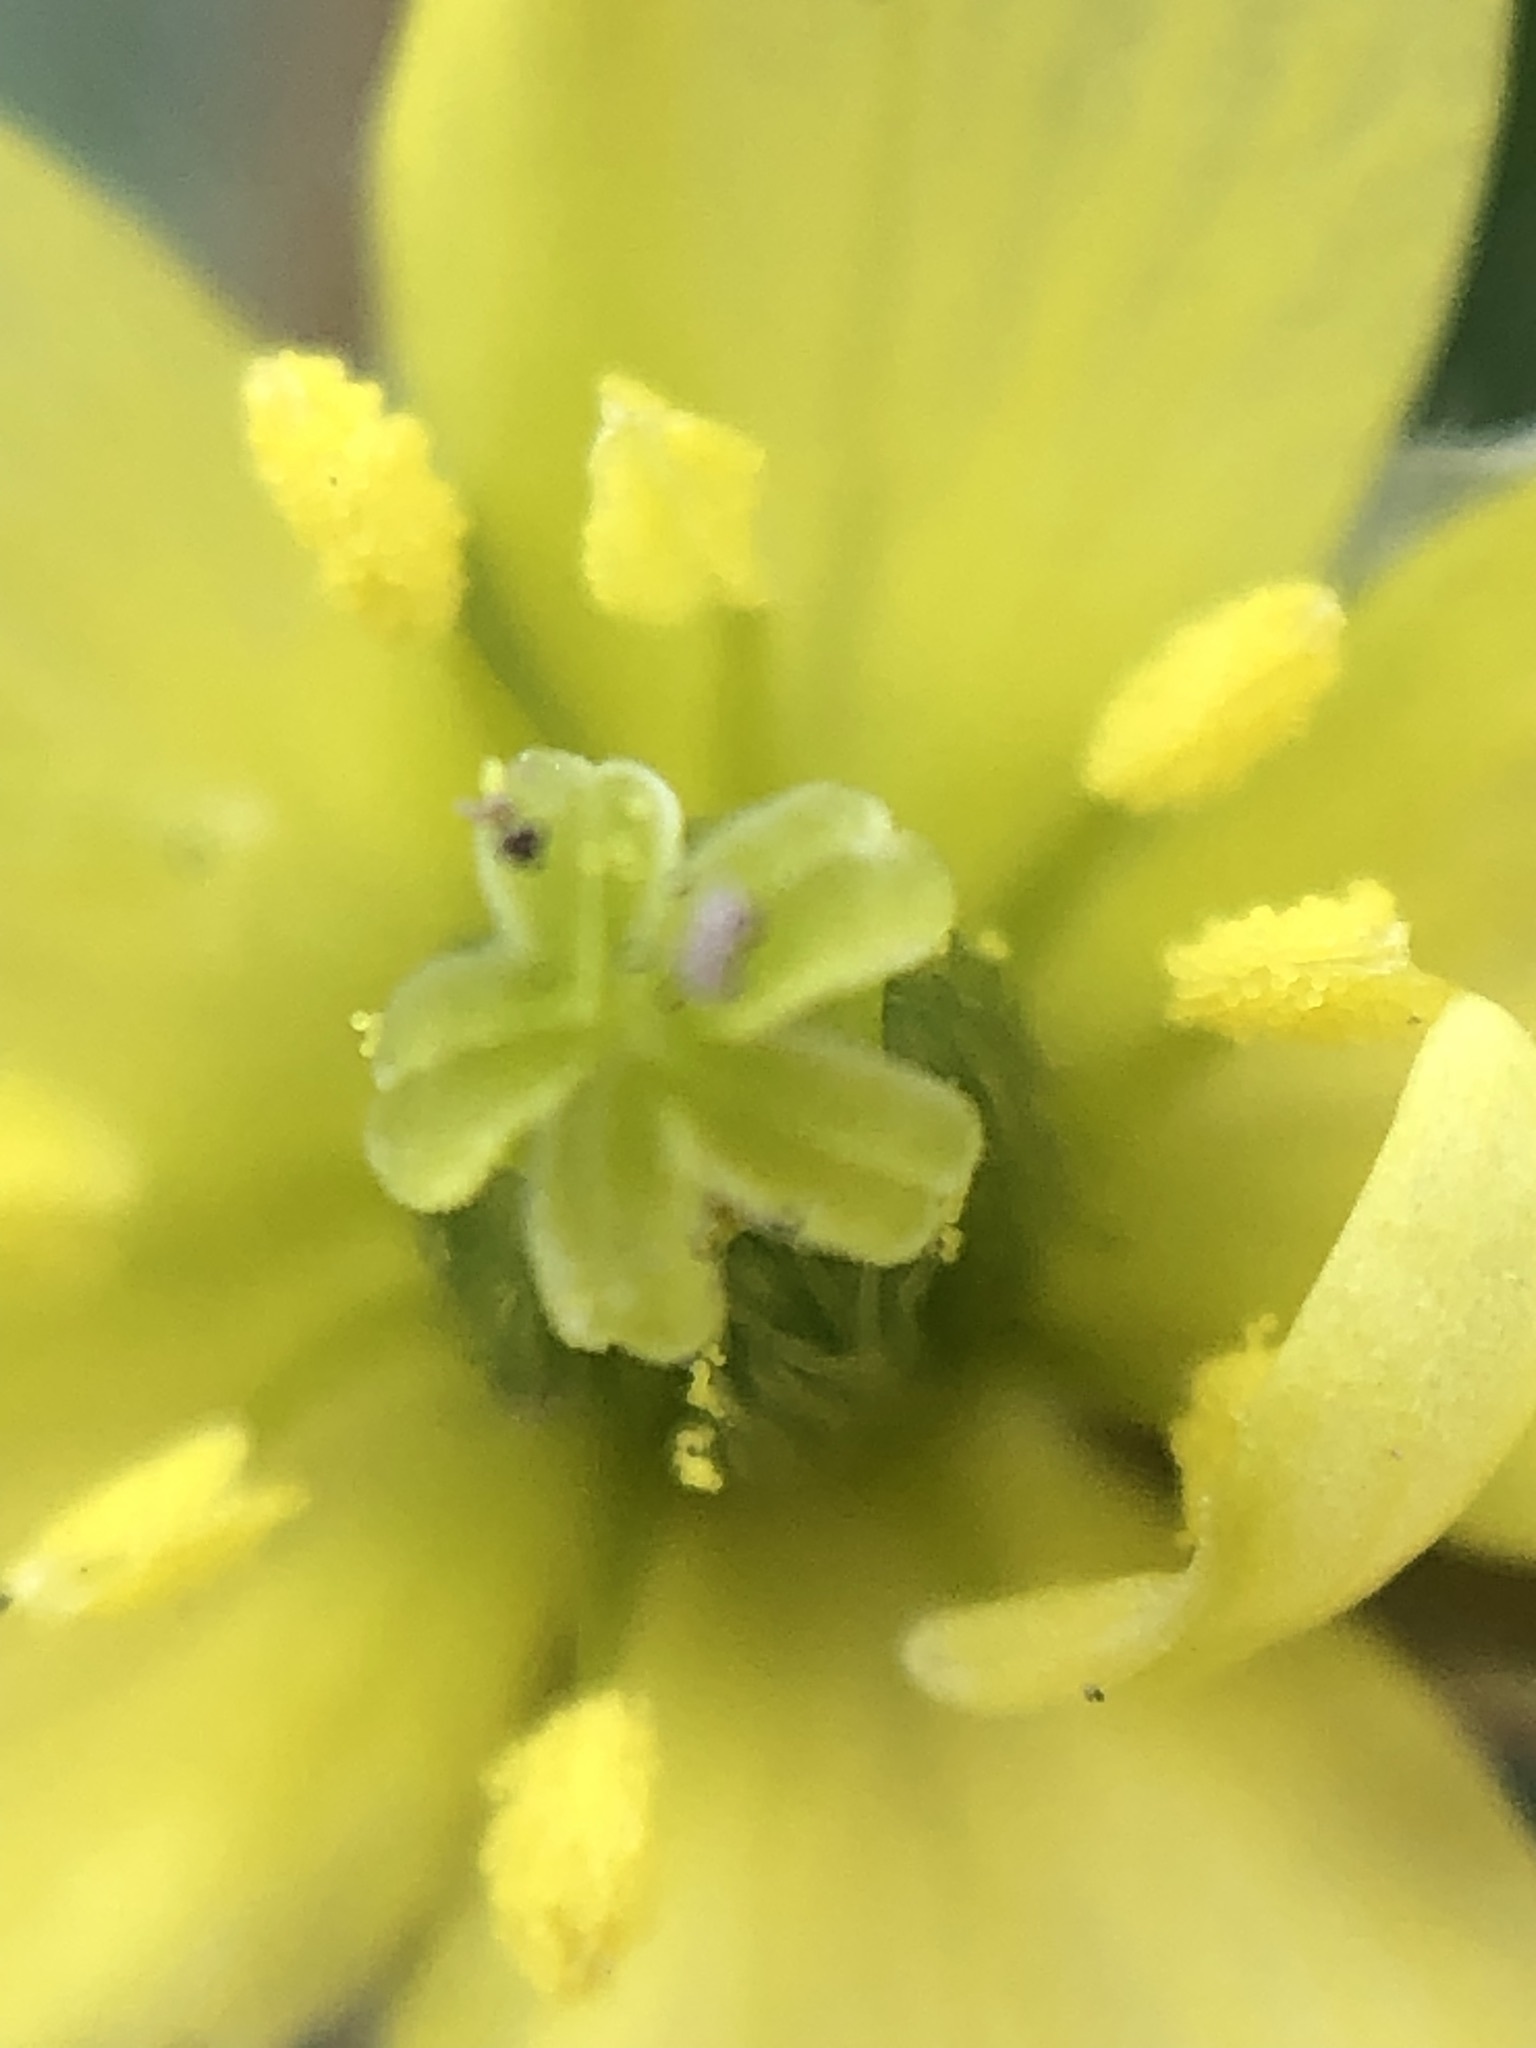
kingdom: Plantae
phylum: Tracheophyta
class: Magnoliopsida
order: Zygophyllales
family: Zygophyllaceae
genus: Tribulus
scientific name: Tribulus terrestris
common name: Puncturevine
